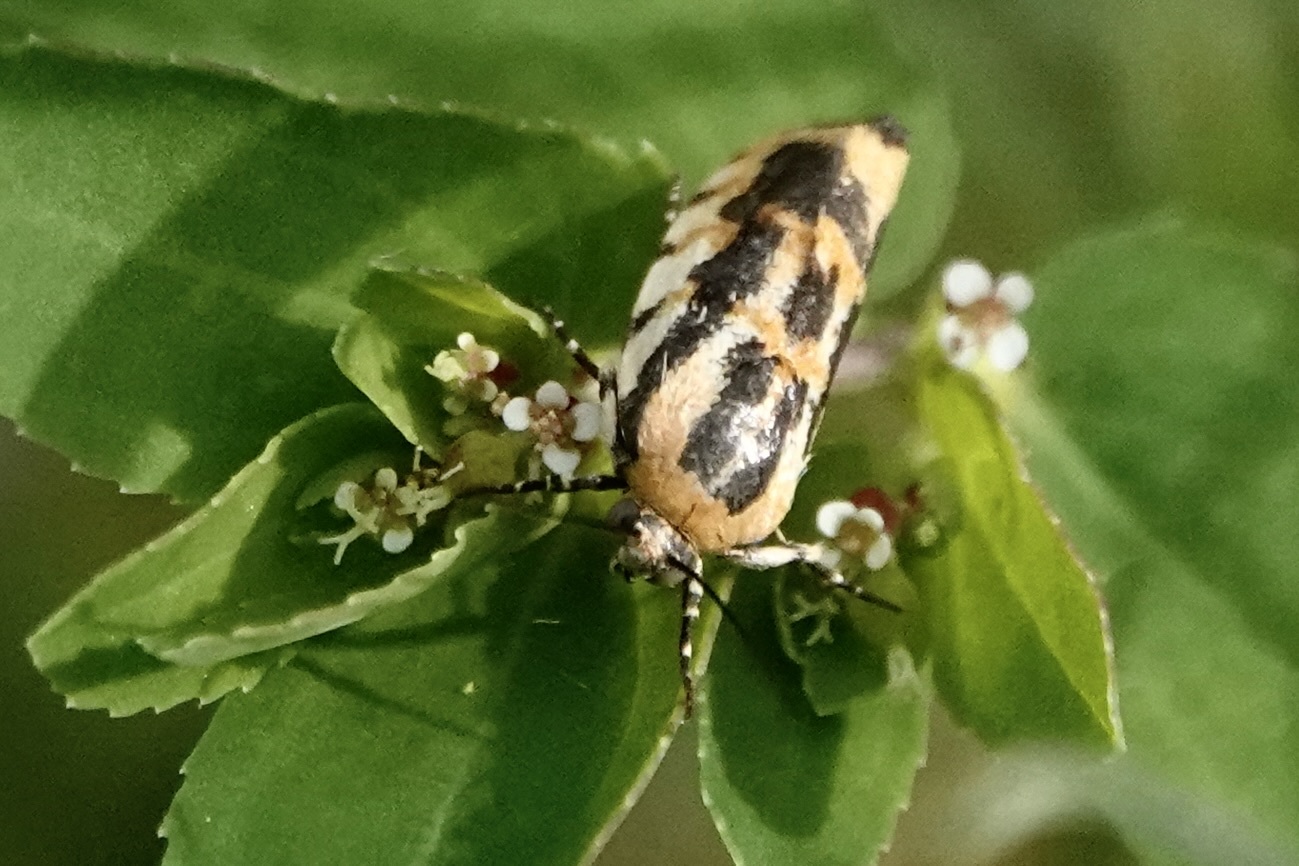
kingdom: Animalia
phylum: Arthropoda
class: Insecta
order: Lepidoptera
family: Noctuidae
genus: Acontia
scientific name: Acontia leo
